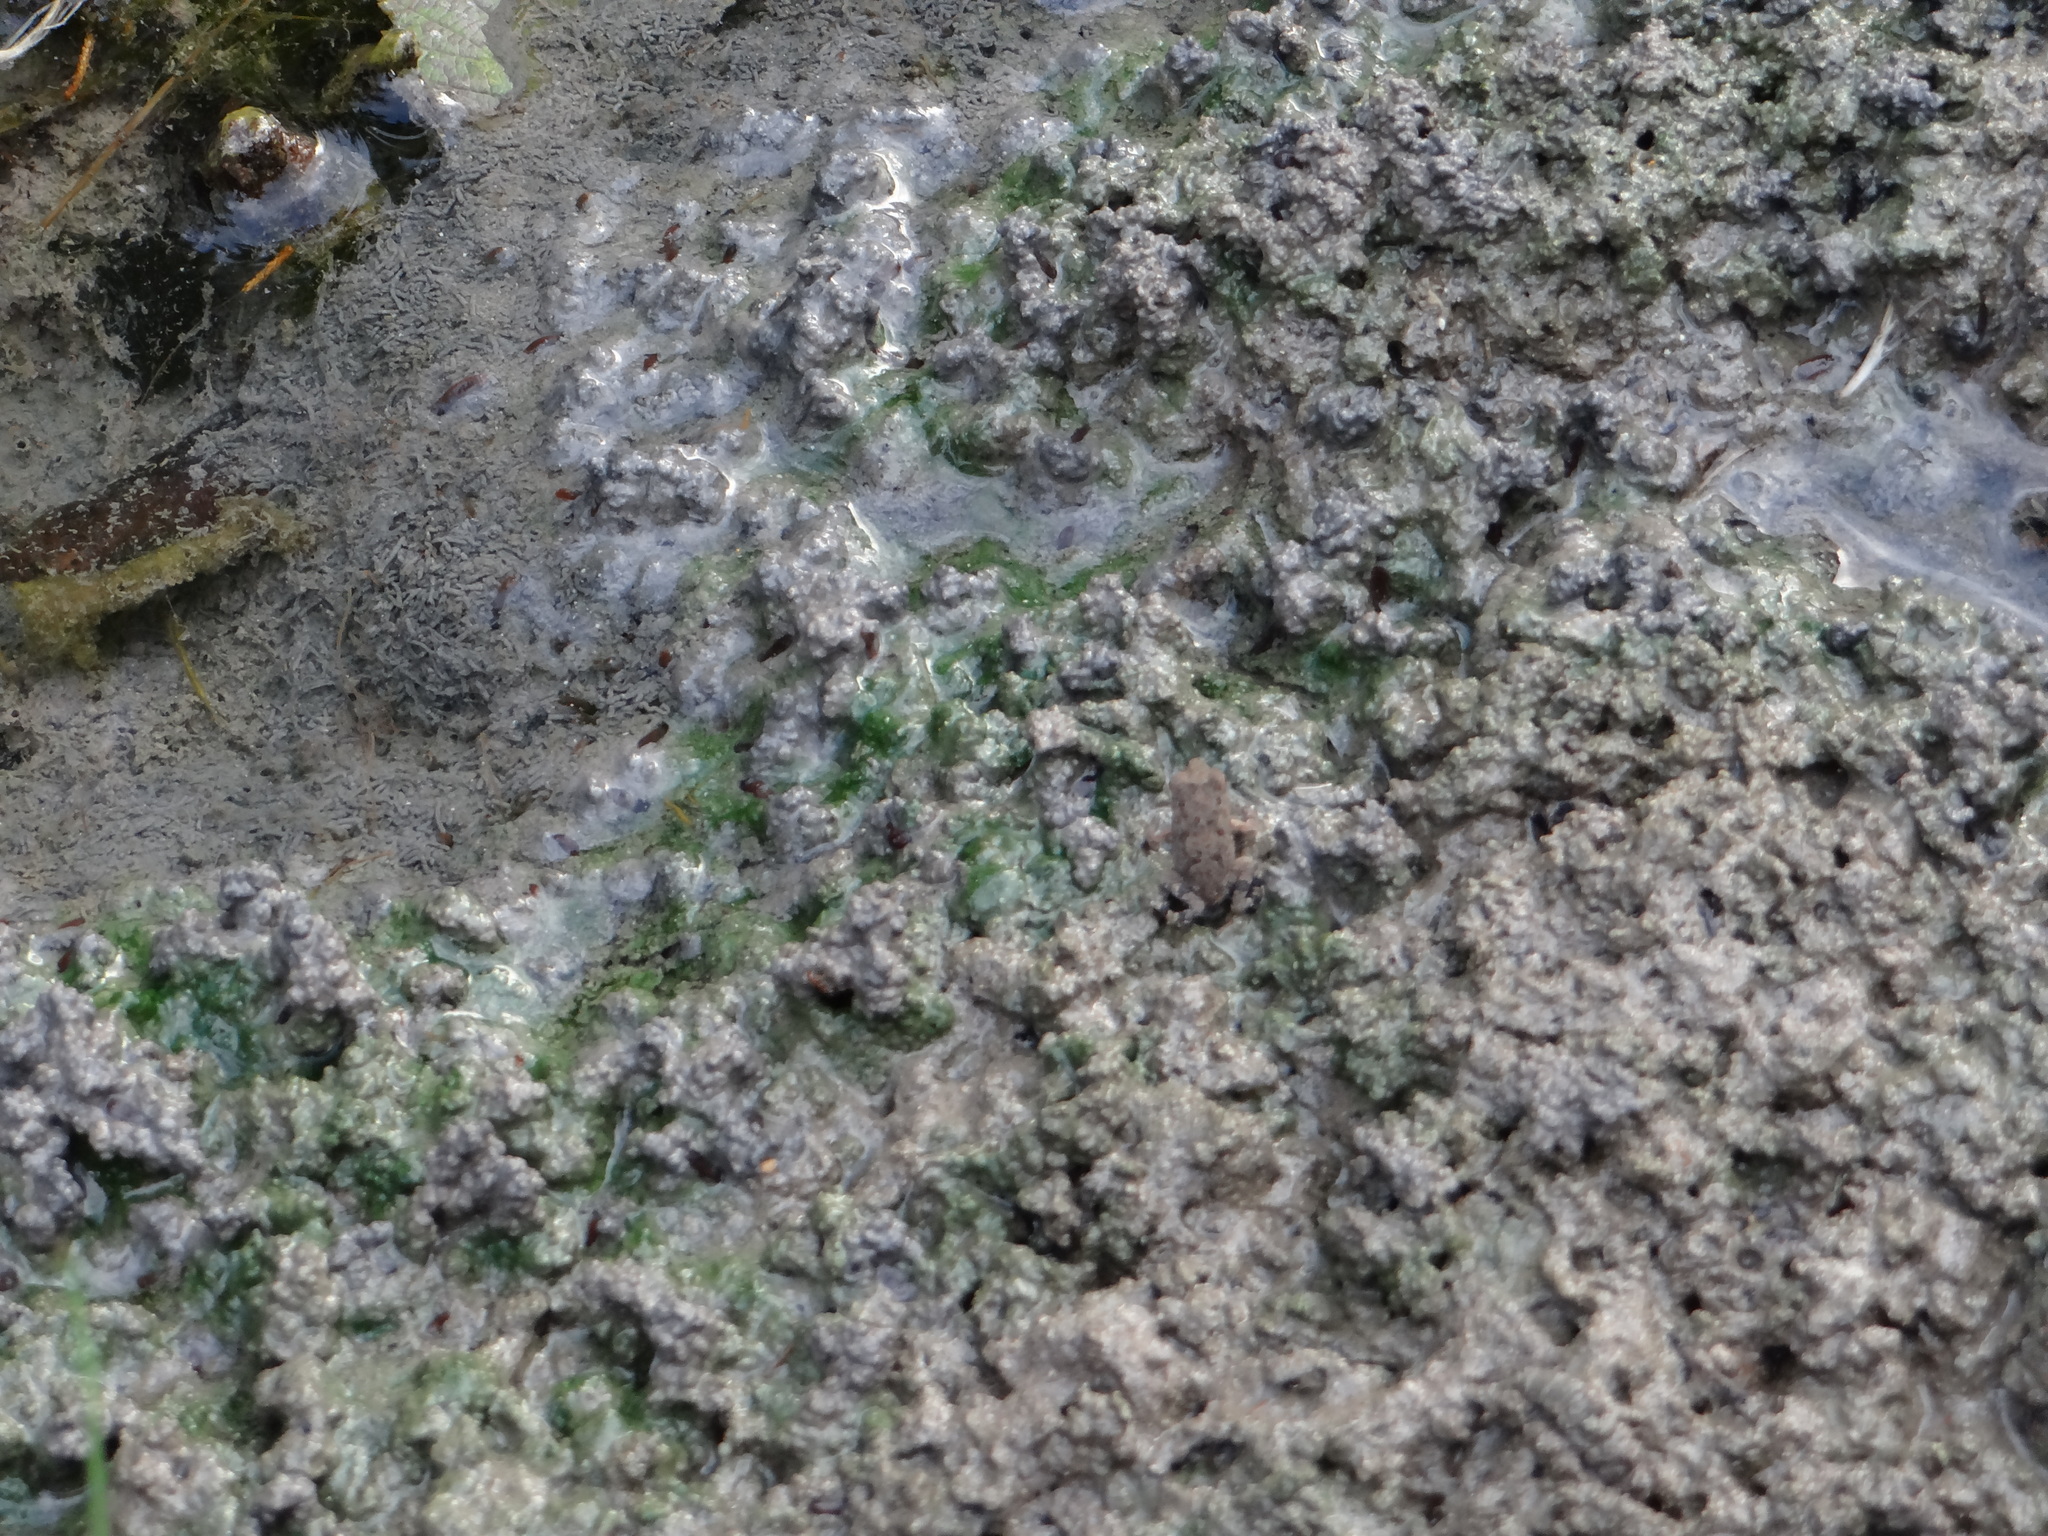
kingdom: Animalia
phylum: Chordata
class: Amphibia
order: Anura
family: Bufonidae
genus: Incilius
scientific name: Incilius nebulifer
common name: Gulf coast toad
